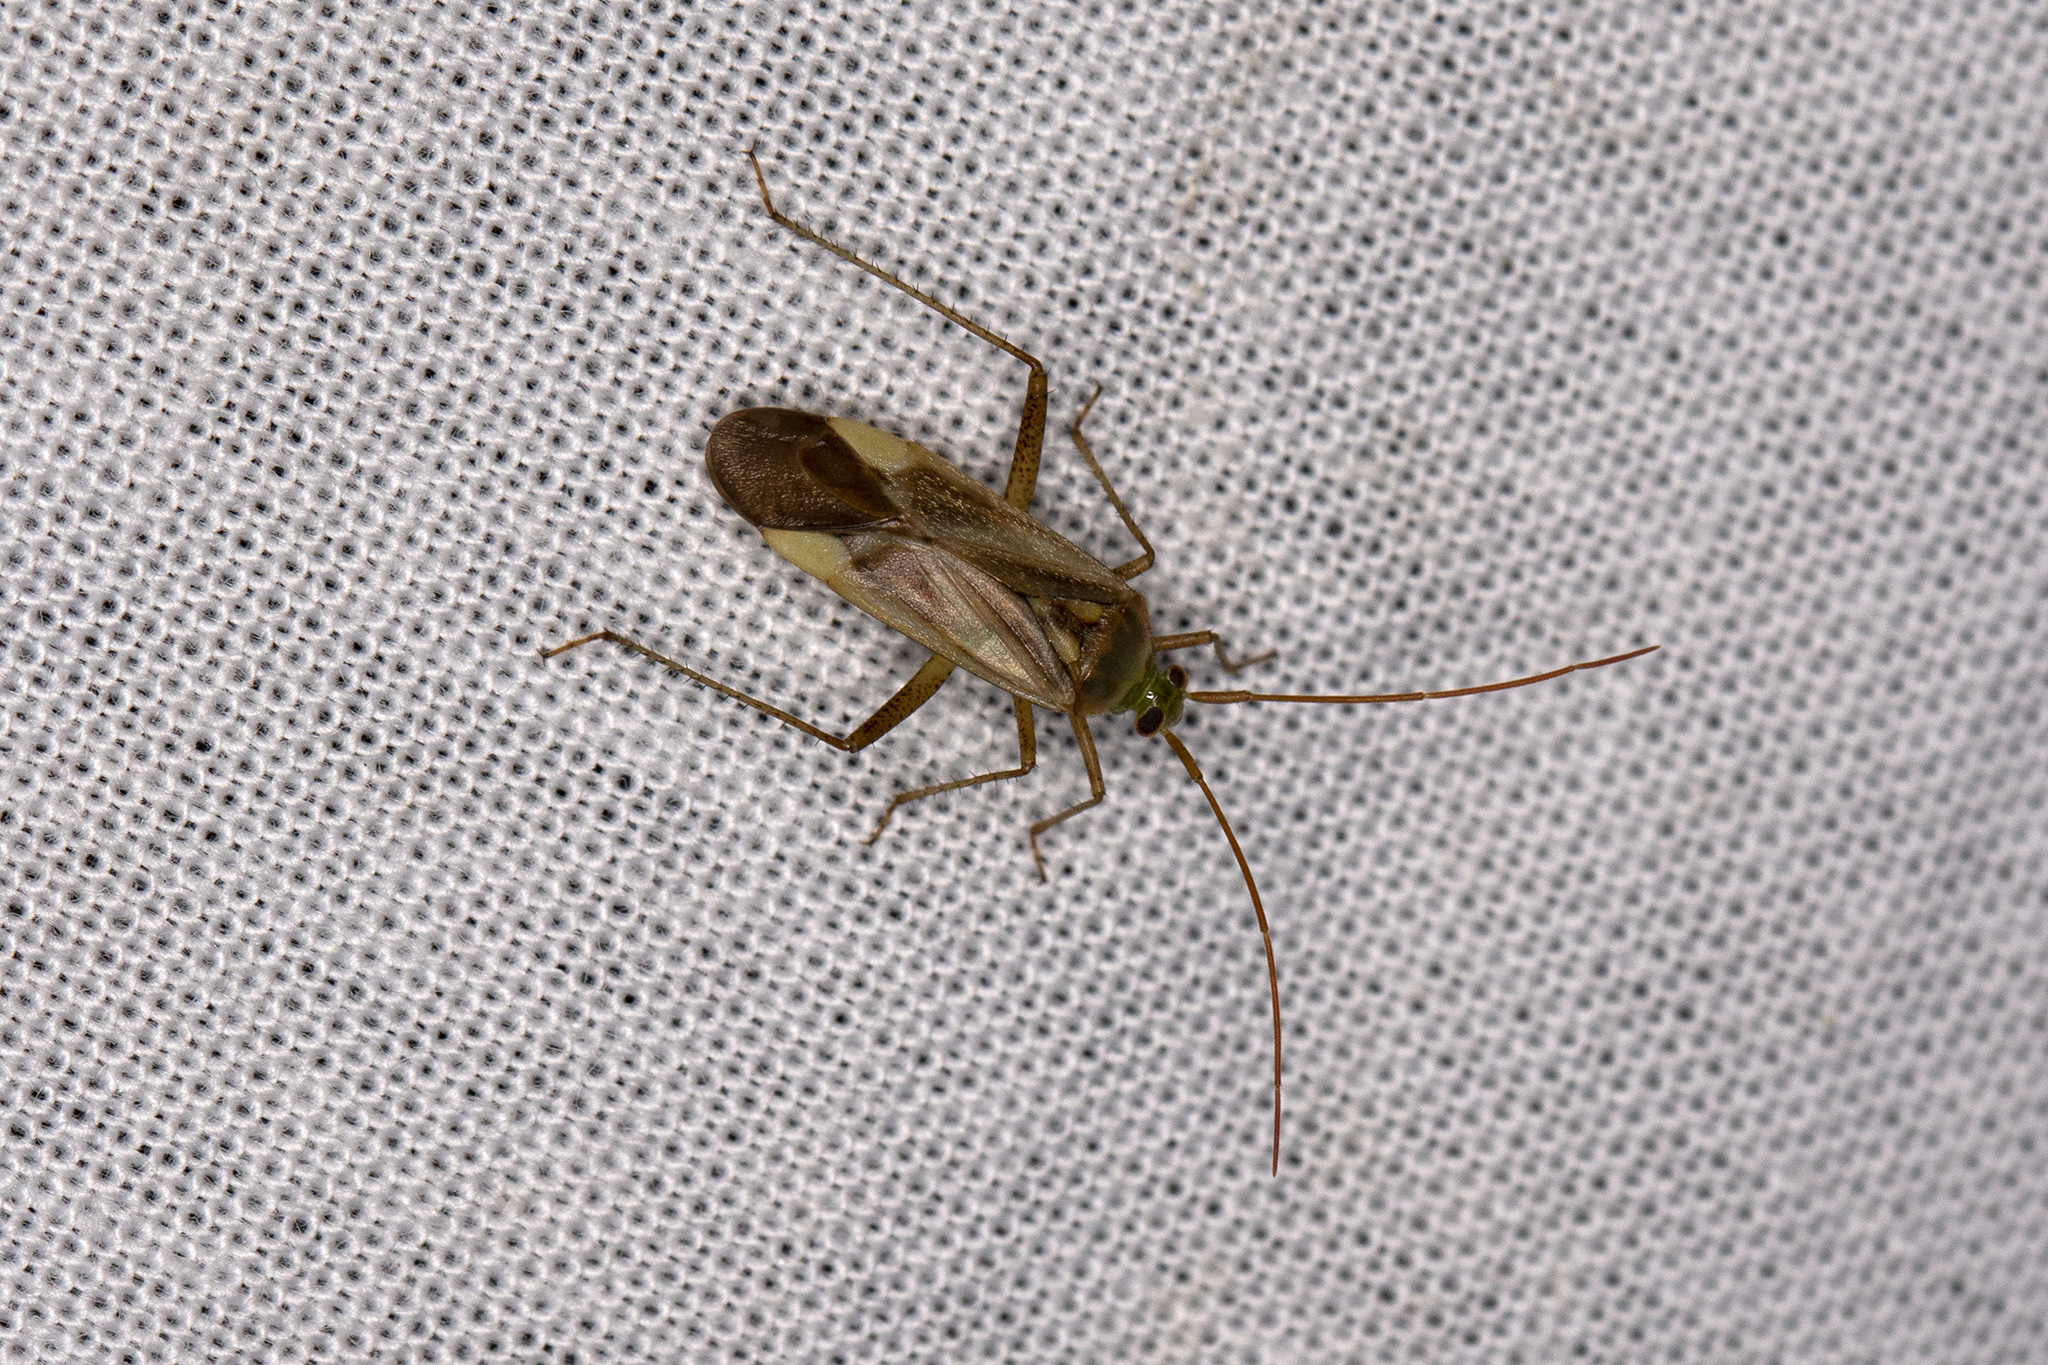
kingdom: Animalia
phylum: Arthropoda
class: Insecta
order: Hemiptera
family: Miridae
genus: Adelphocoris
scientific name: Adelphocoris lineolatus
